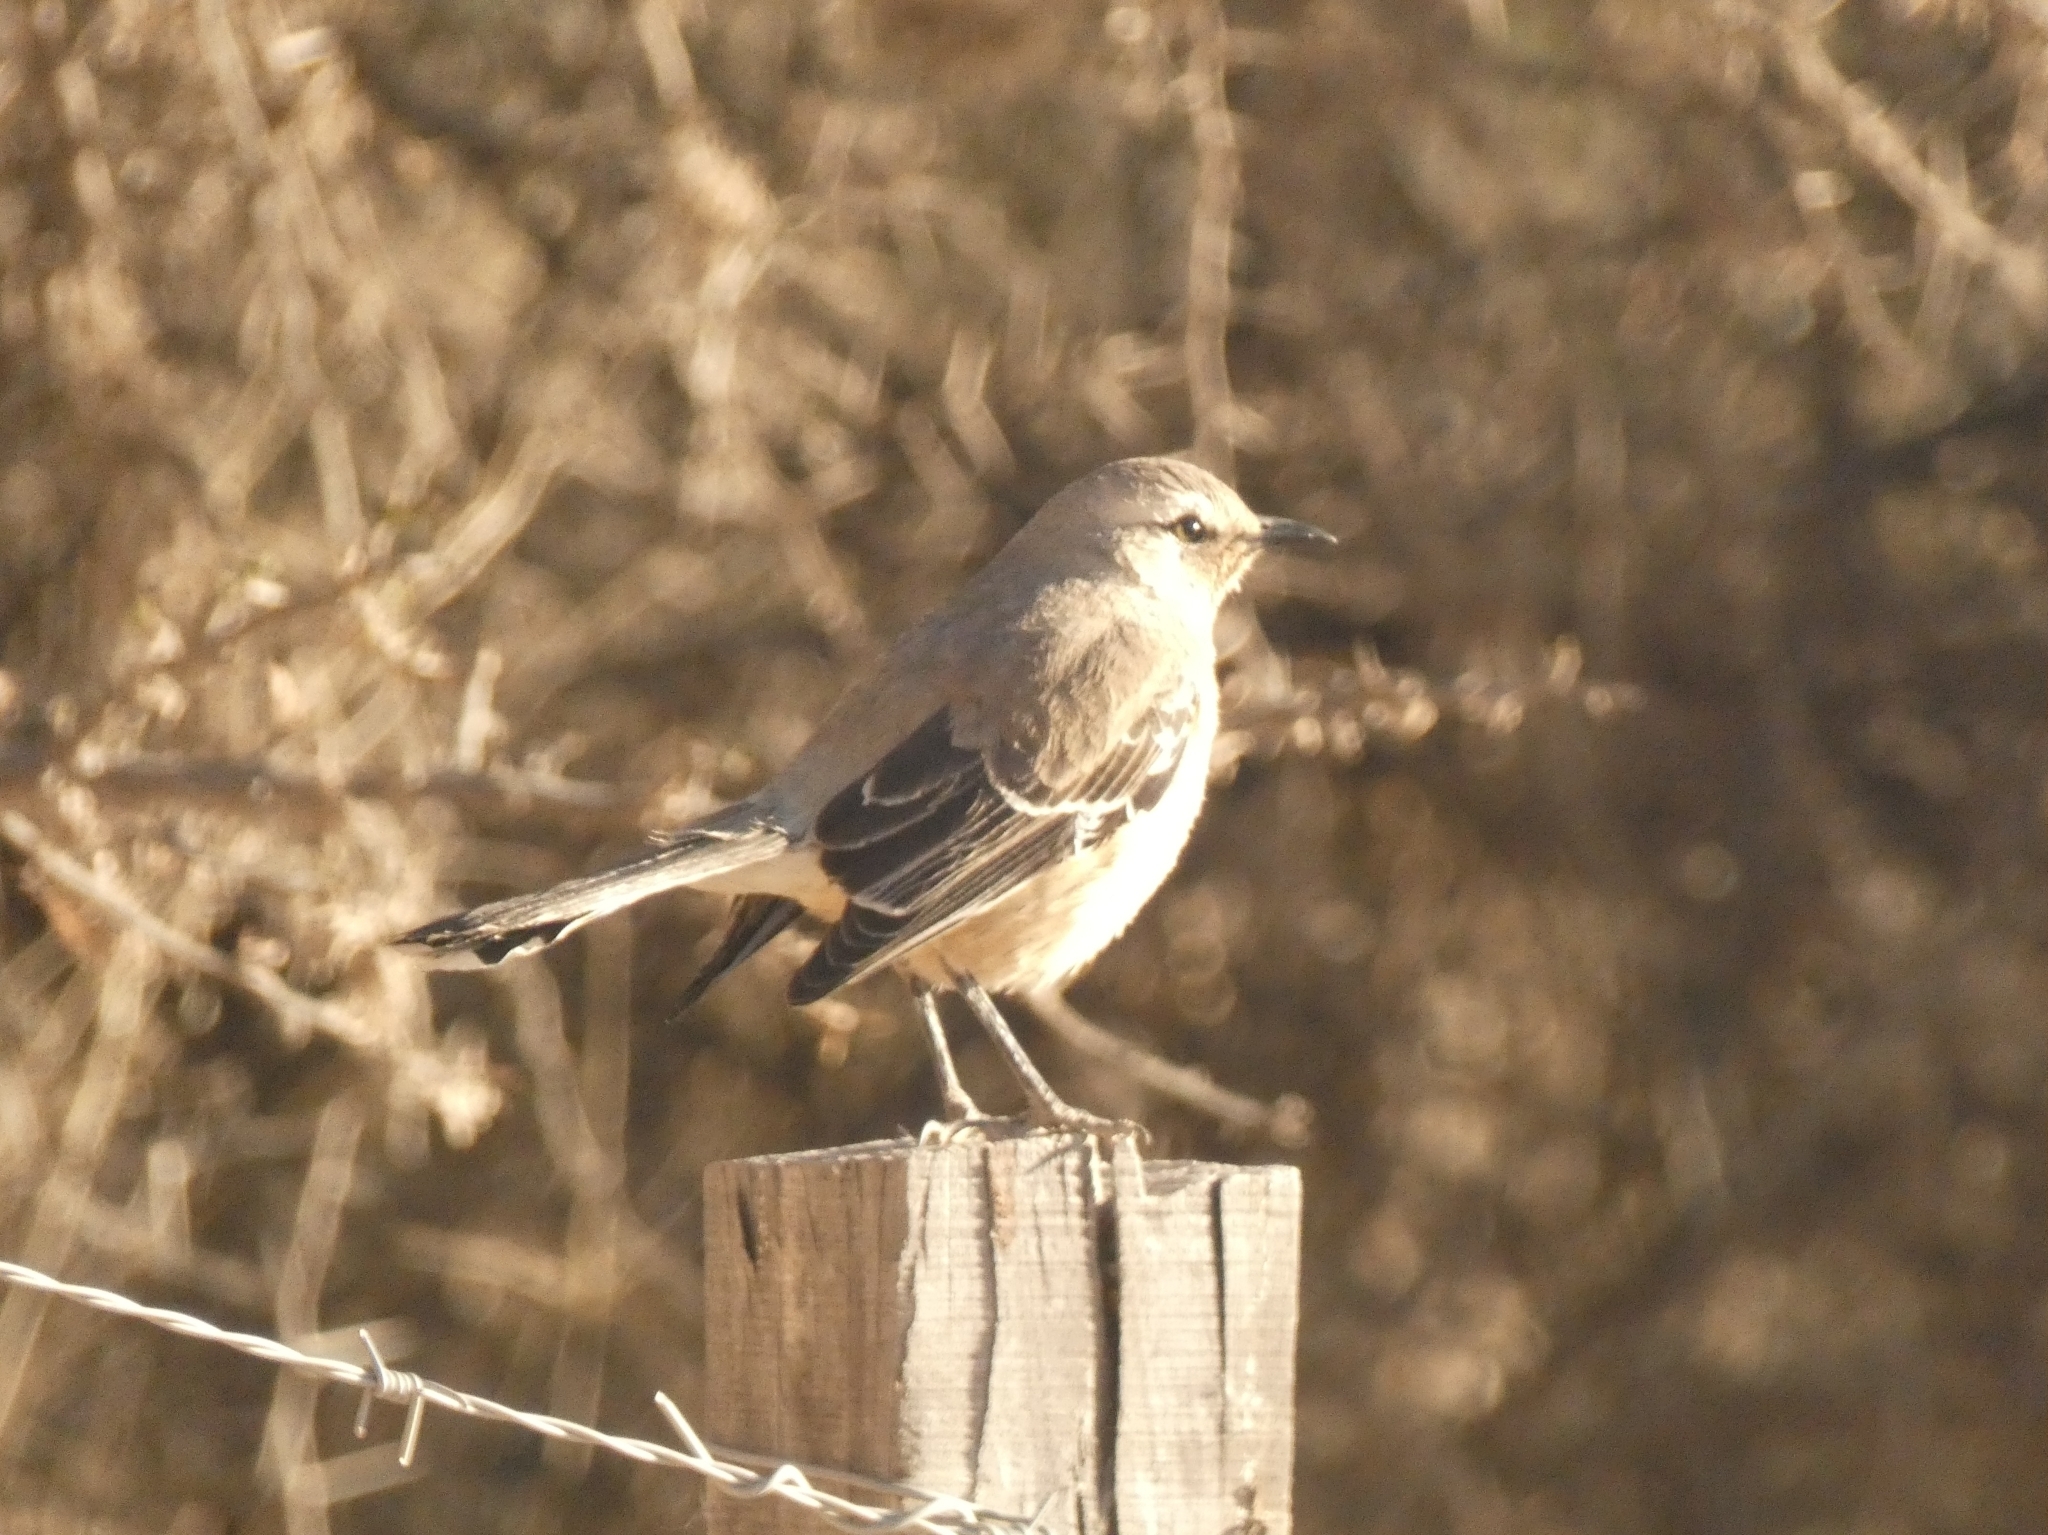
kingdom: Animalia
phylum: Chordata
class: Aves
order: Passeriformes
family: Mimidae
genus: Mimus
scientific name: Mimus patagonicus
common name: Patagonian mockingbird
